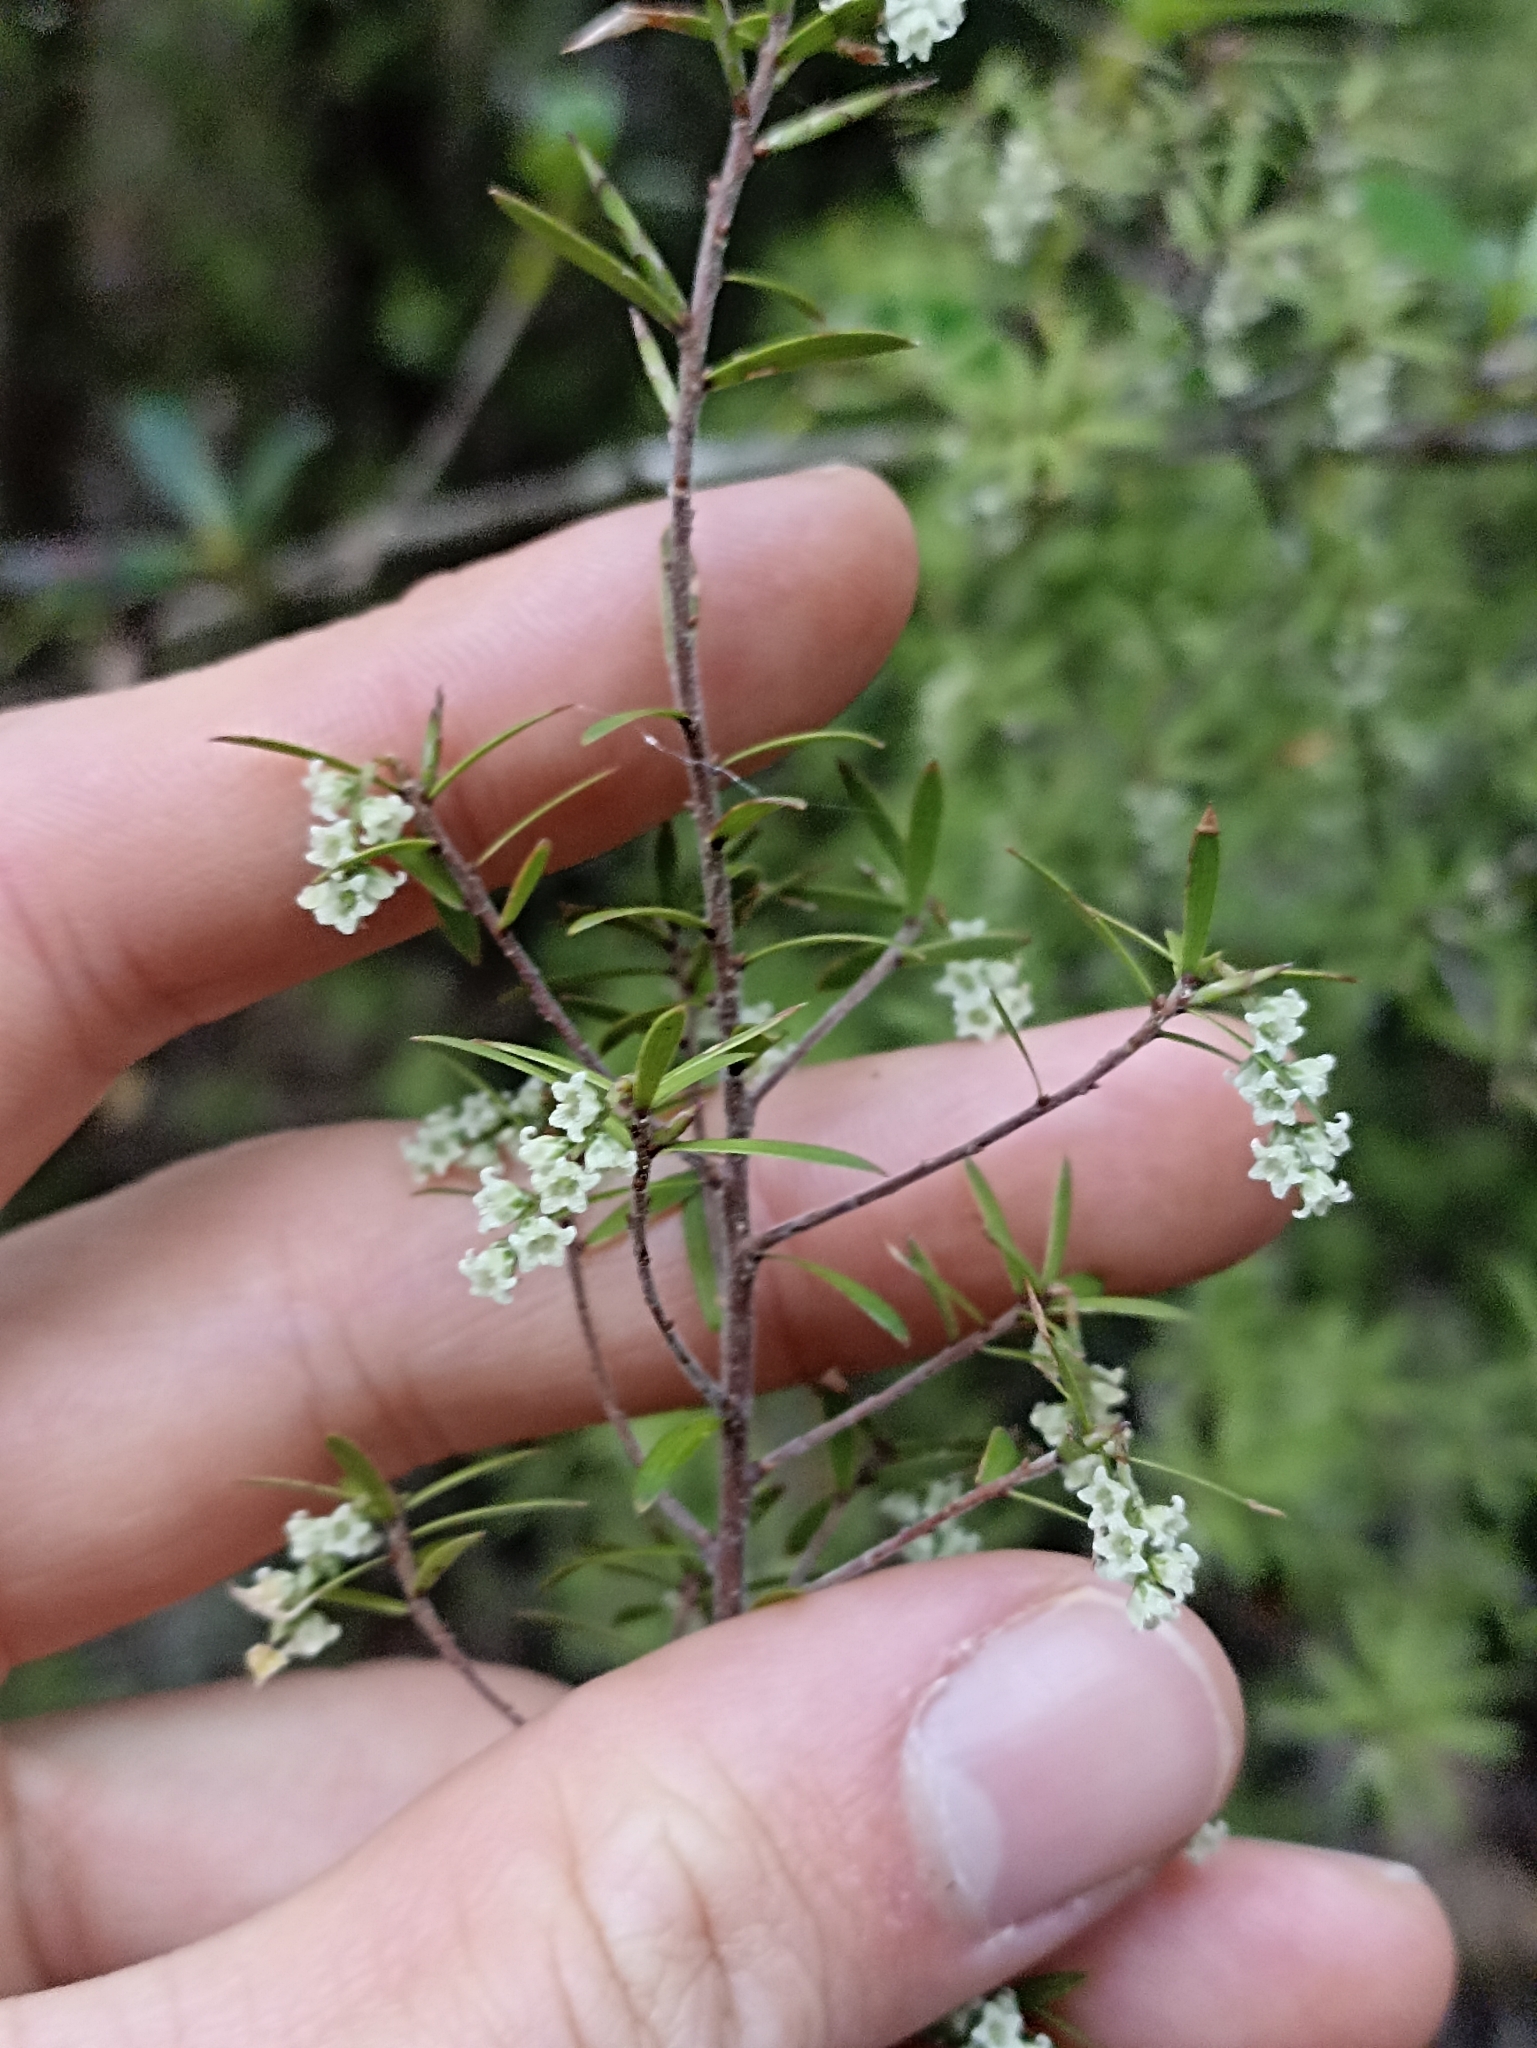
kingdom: Plantae
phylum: Tracheophyta
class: Magnoliopsida
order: Ericales
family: Ericaceae
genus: Leucopogon
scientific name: Leucopogon fasciculatus
